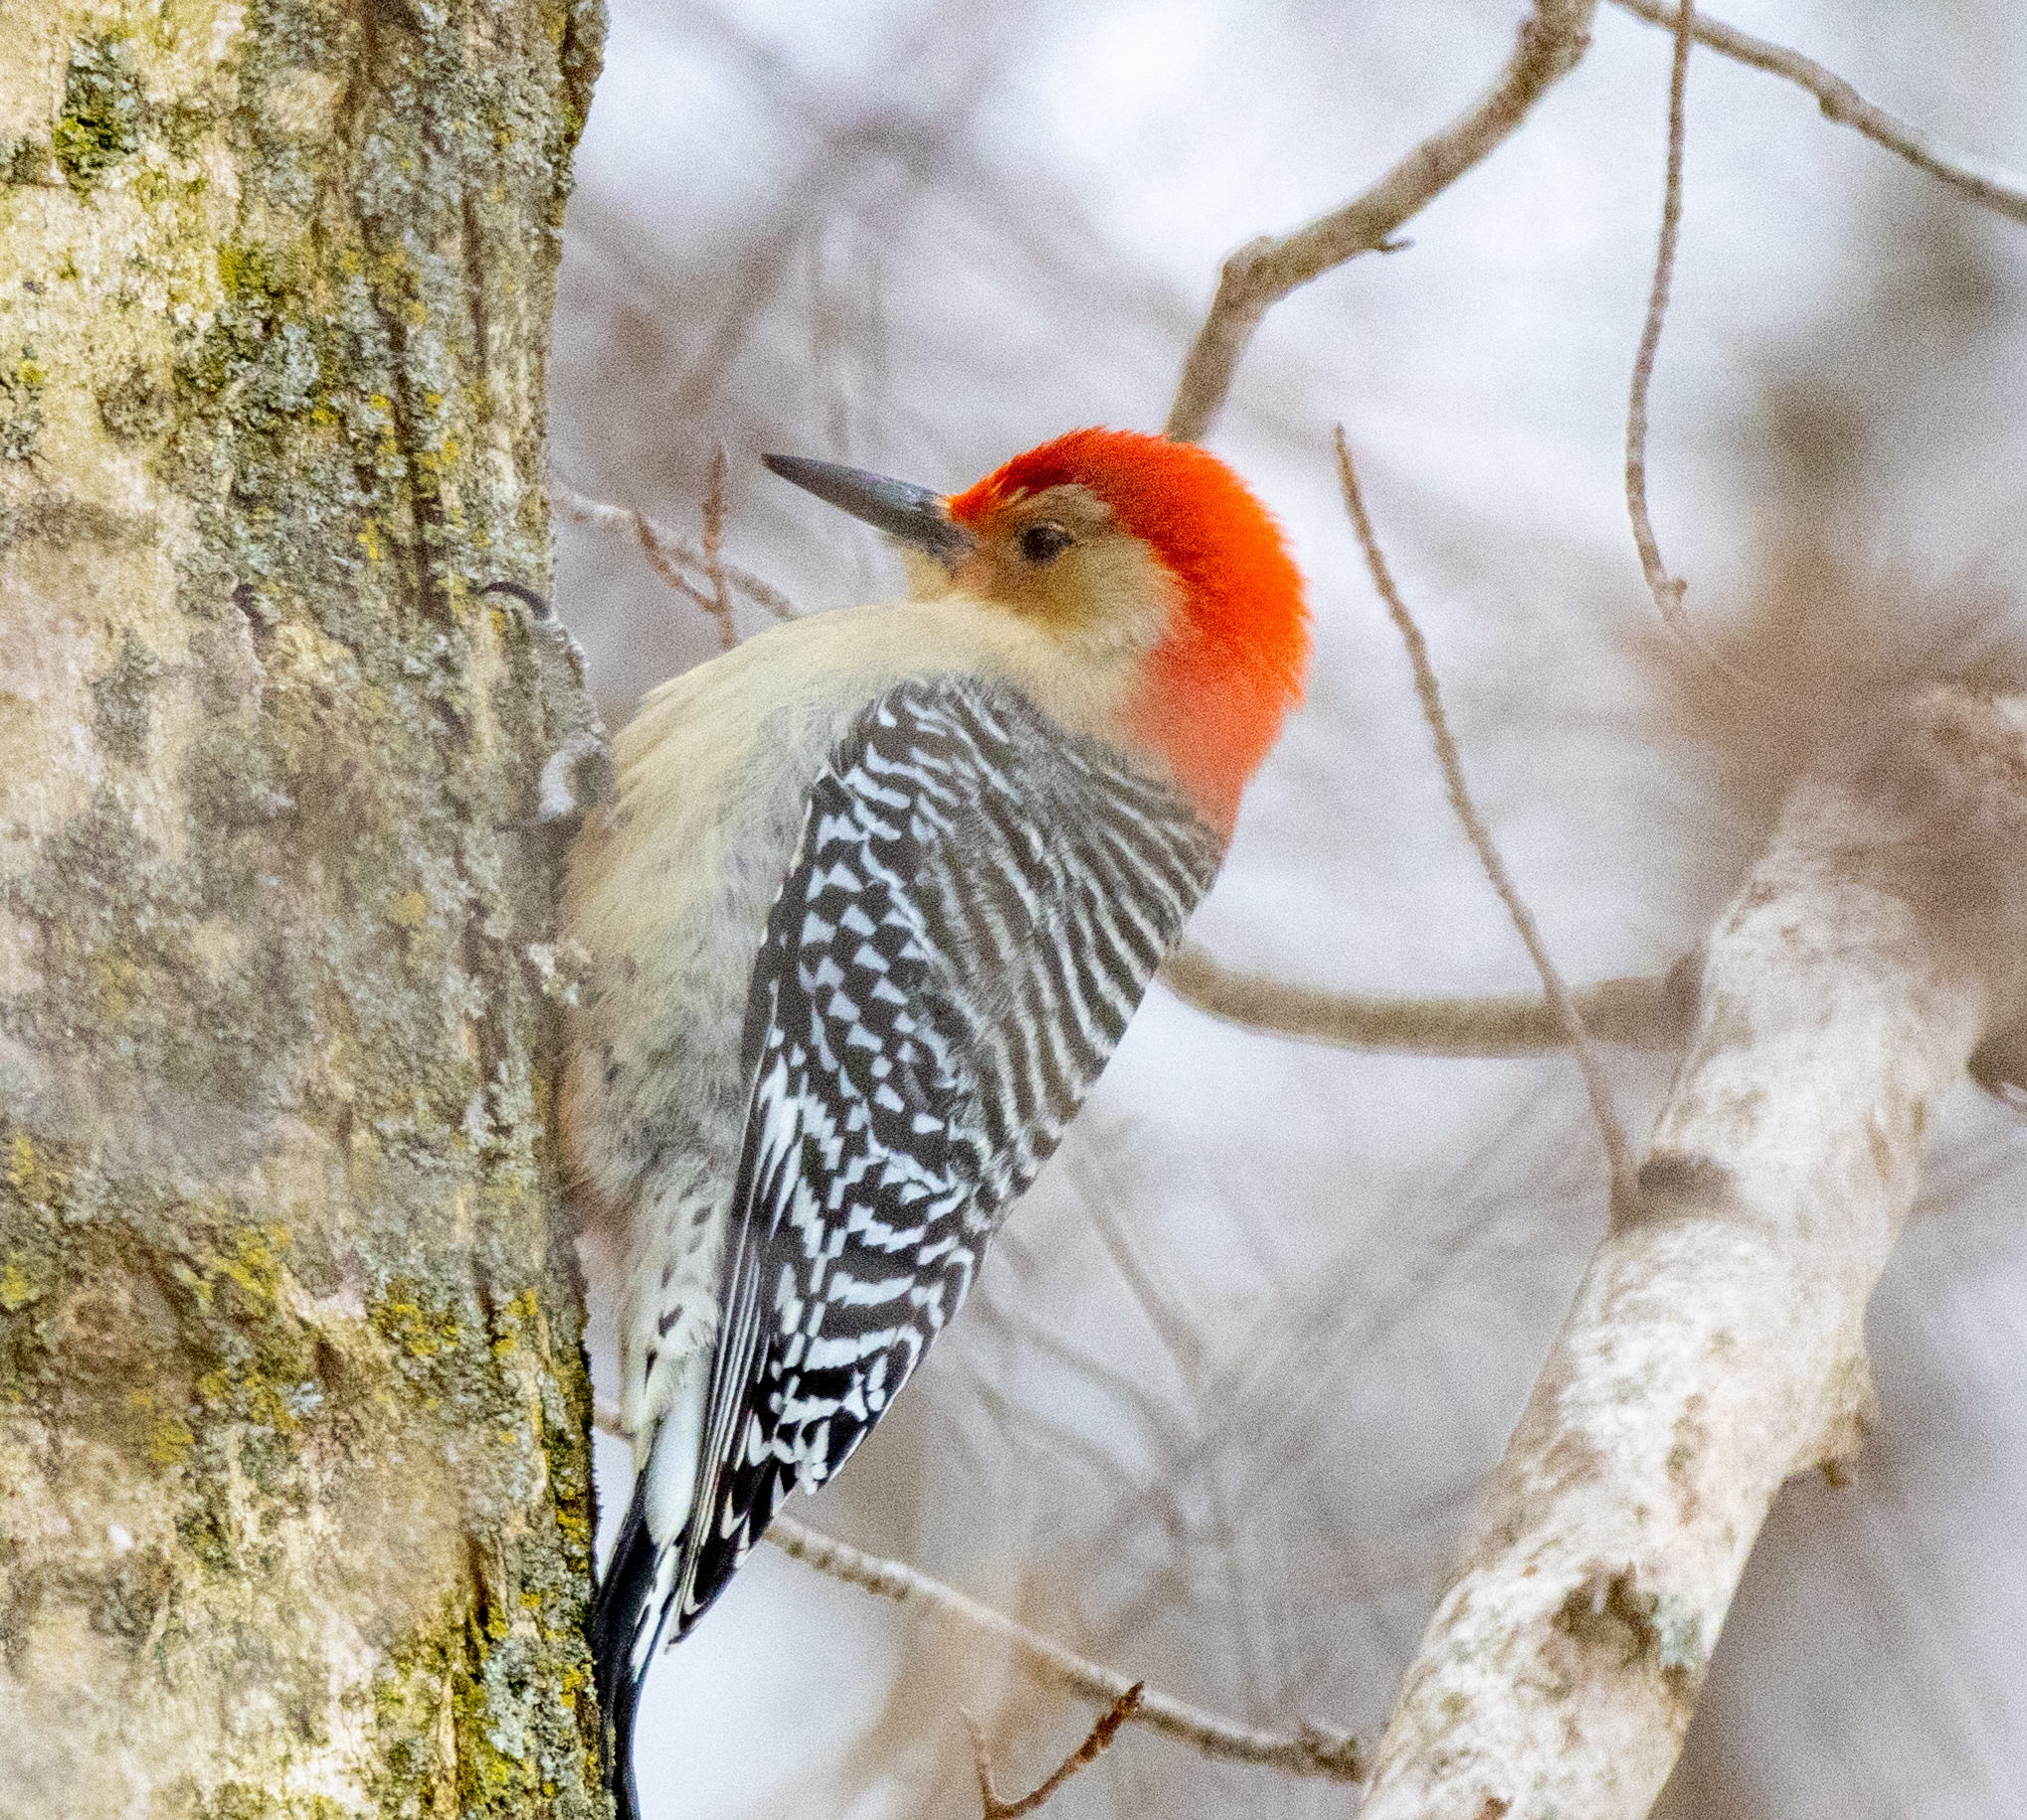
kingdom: Animalia
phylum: Chordata
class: Aves
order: Piciformes
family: Picidae
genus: Melanerpes
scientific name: Melanerpes carolinus
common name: Red-bellied woodpecker
